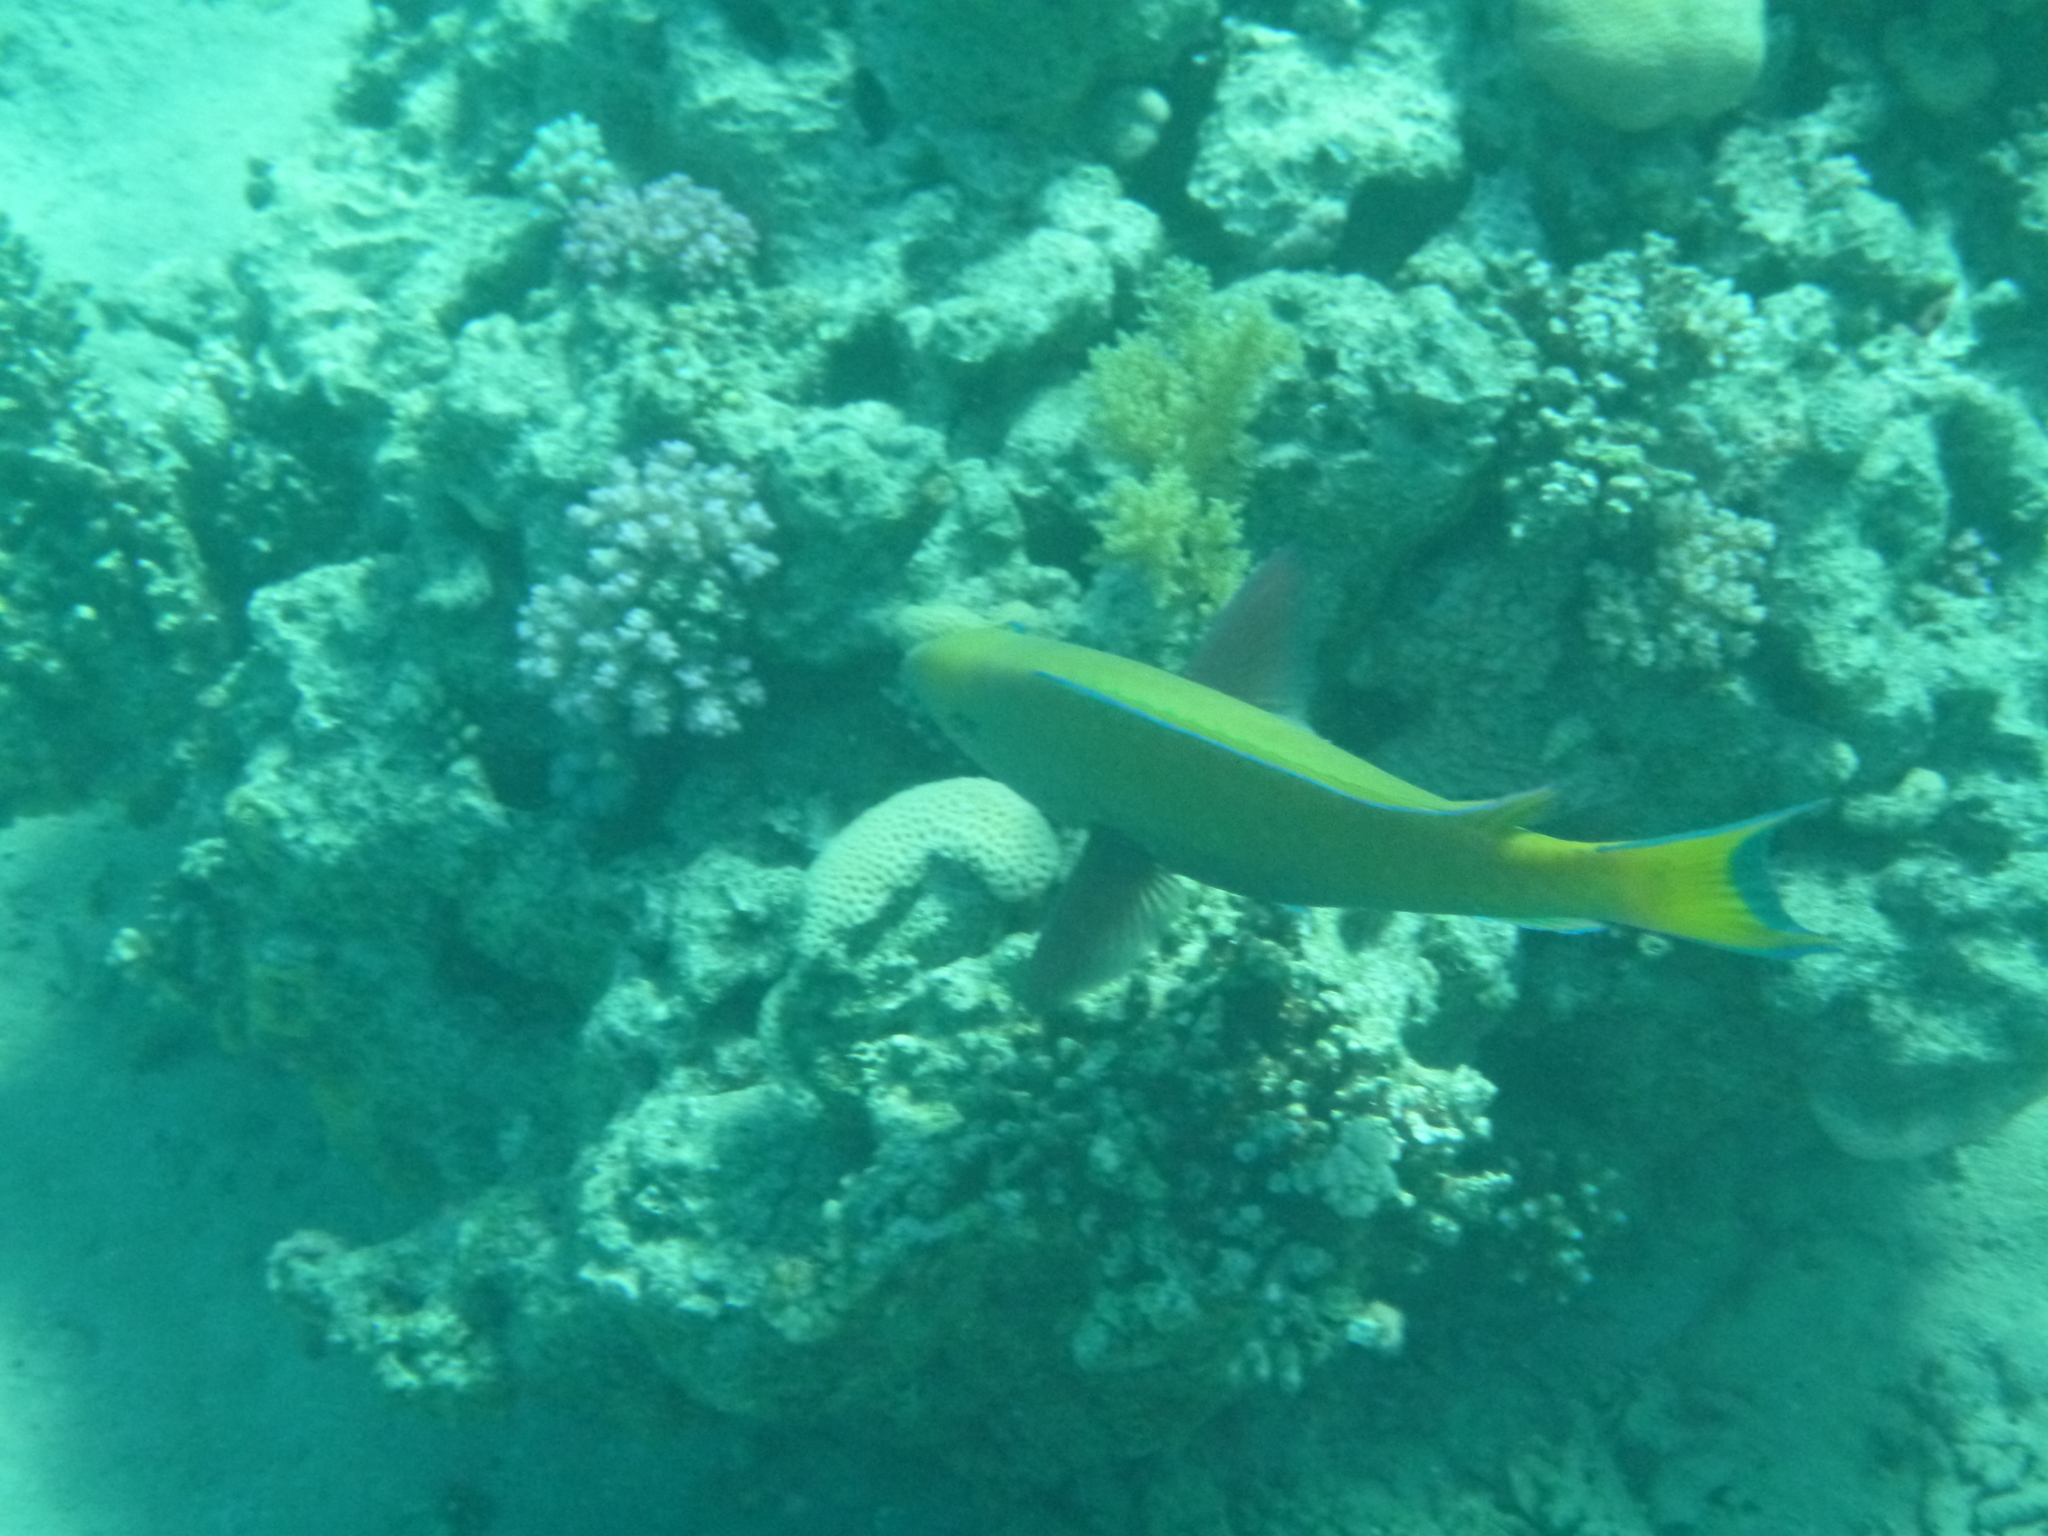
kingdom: Animalia
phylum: Chordata
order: Perciformes
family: Scaridae
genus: Chlorurus
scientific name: Chlorurus gibbus
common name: Heavybeak parrotfish
